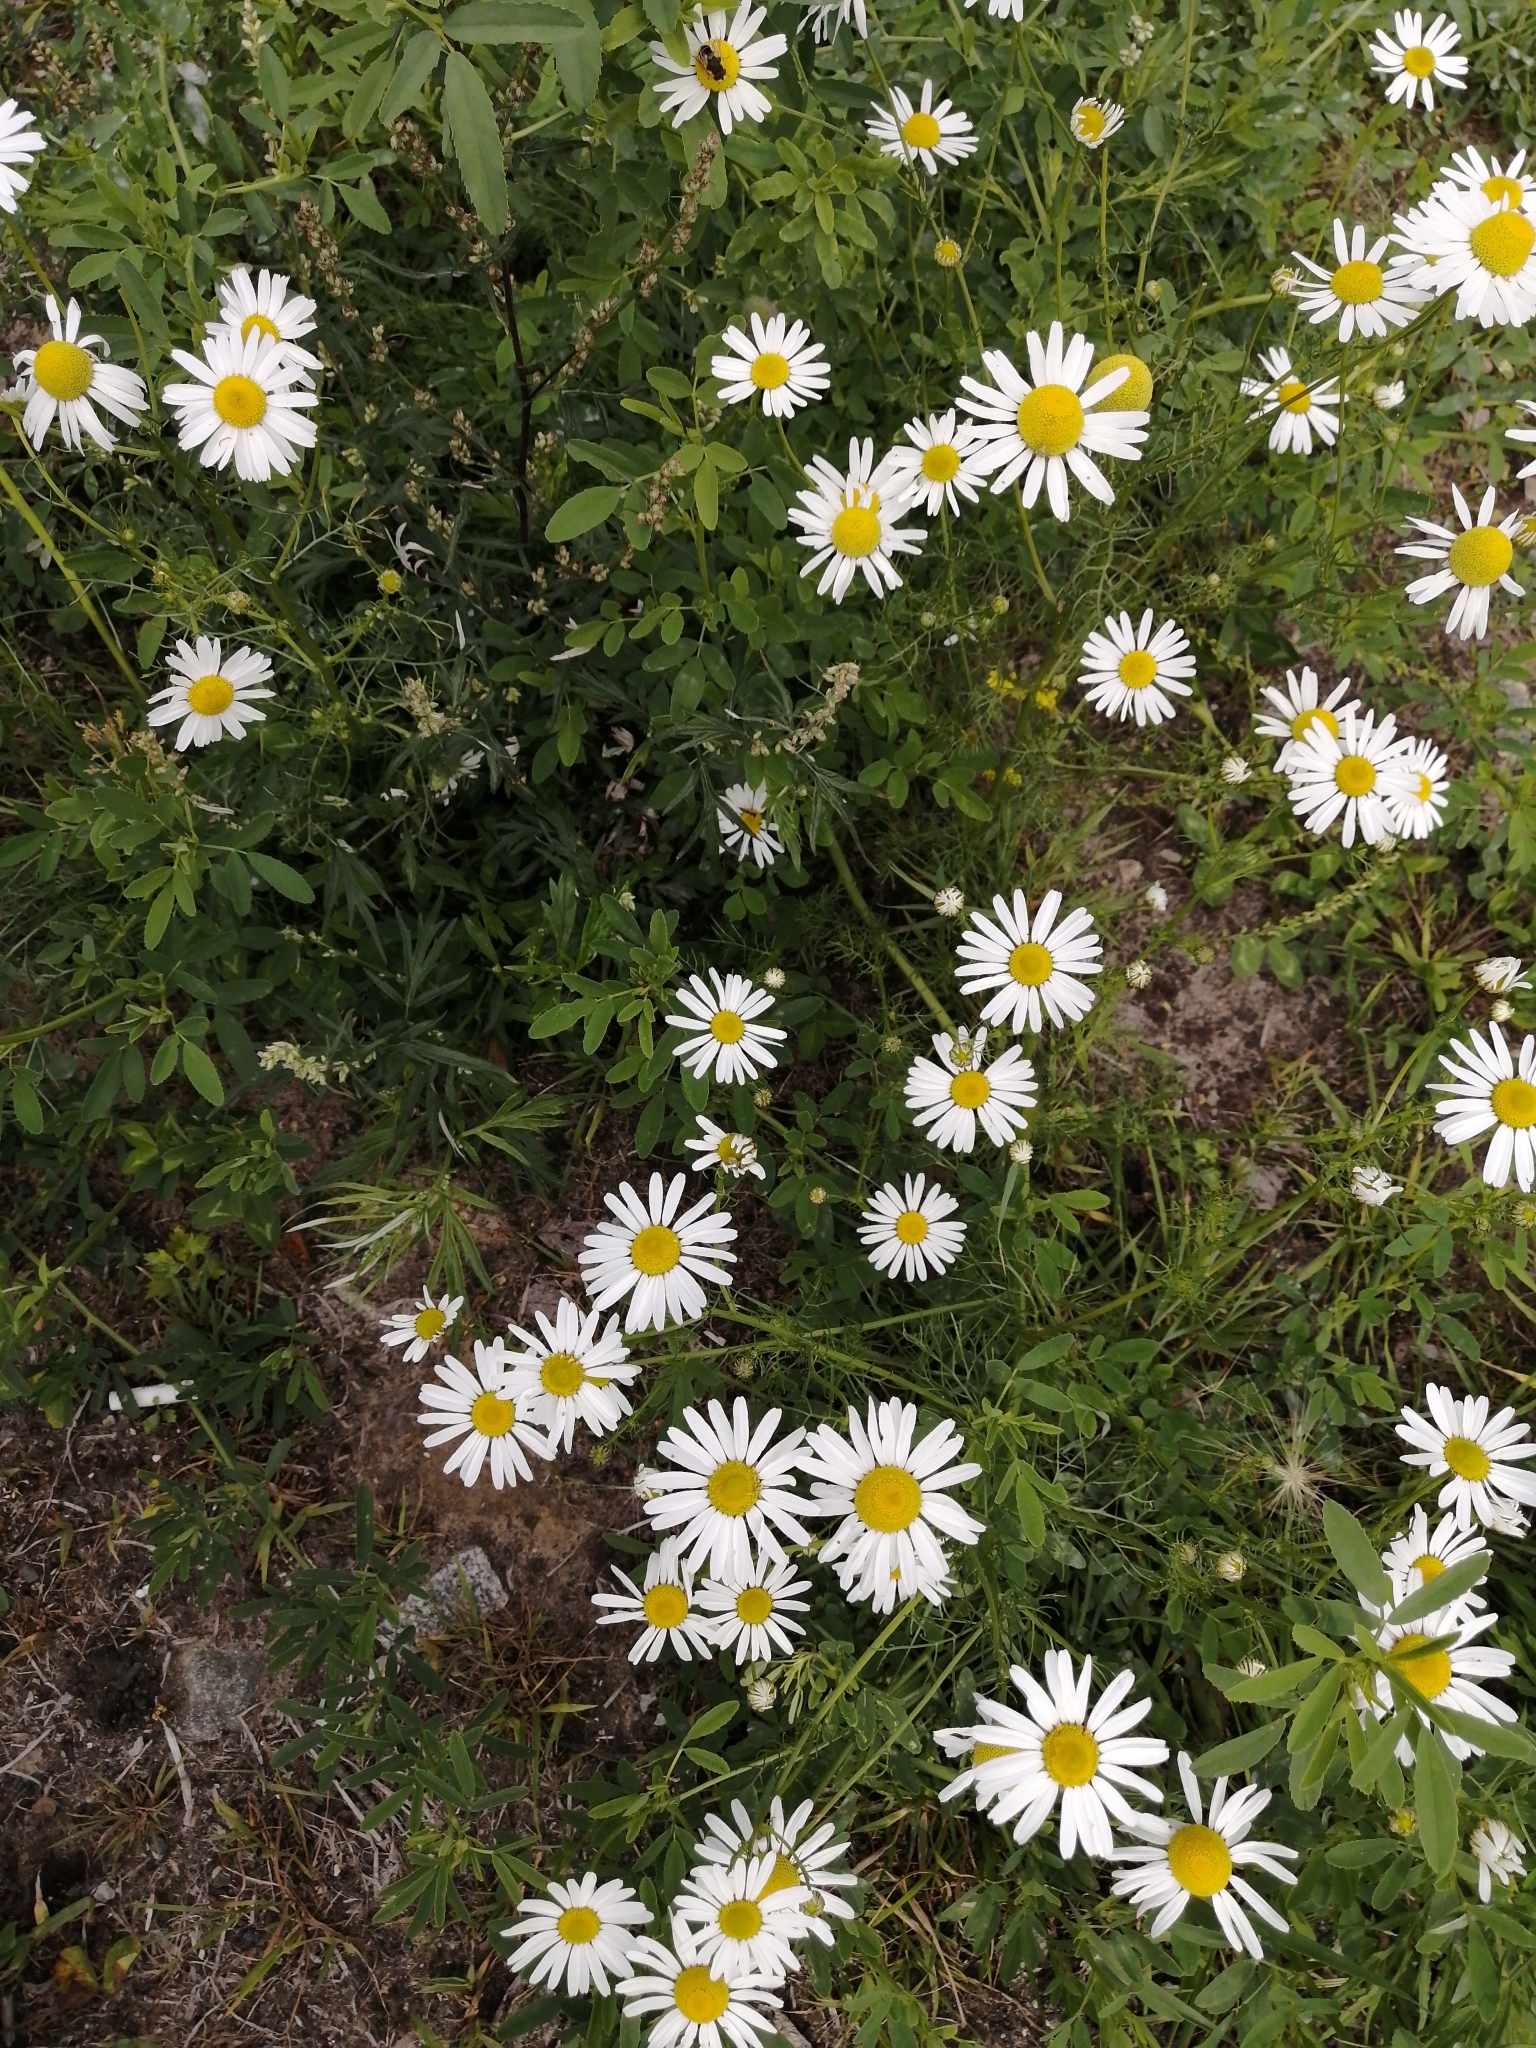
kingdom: Plantae
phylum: Tracheophyta
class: Magnoliopsida
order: Asterales
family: Asteraceae
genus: Tripleurospermum
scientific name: Tripleurospermum inodorum
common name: Scentless mayweed
